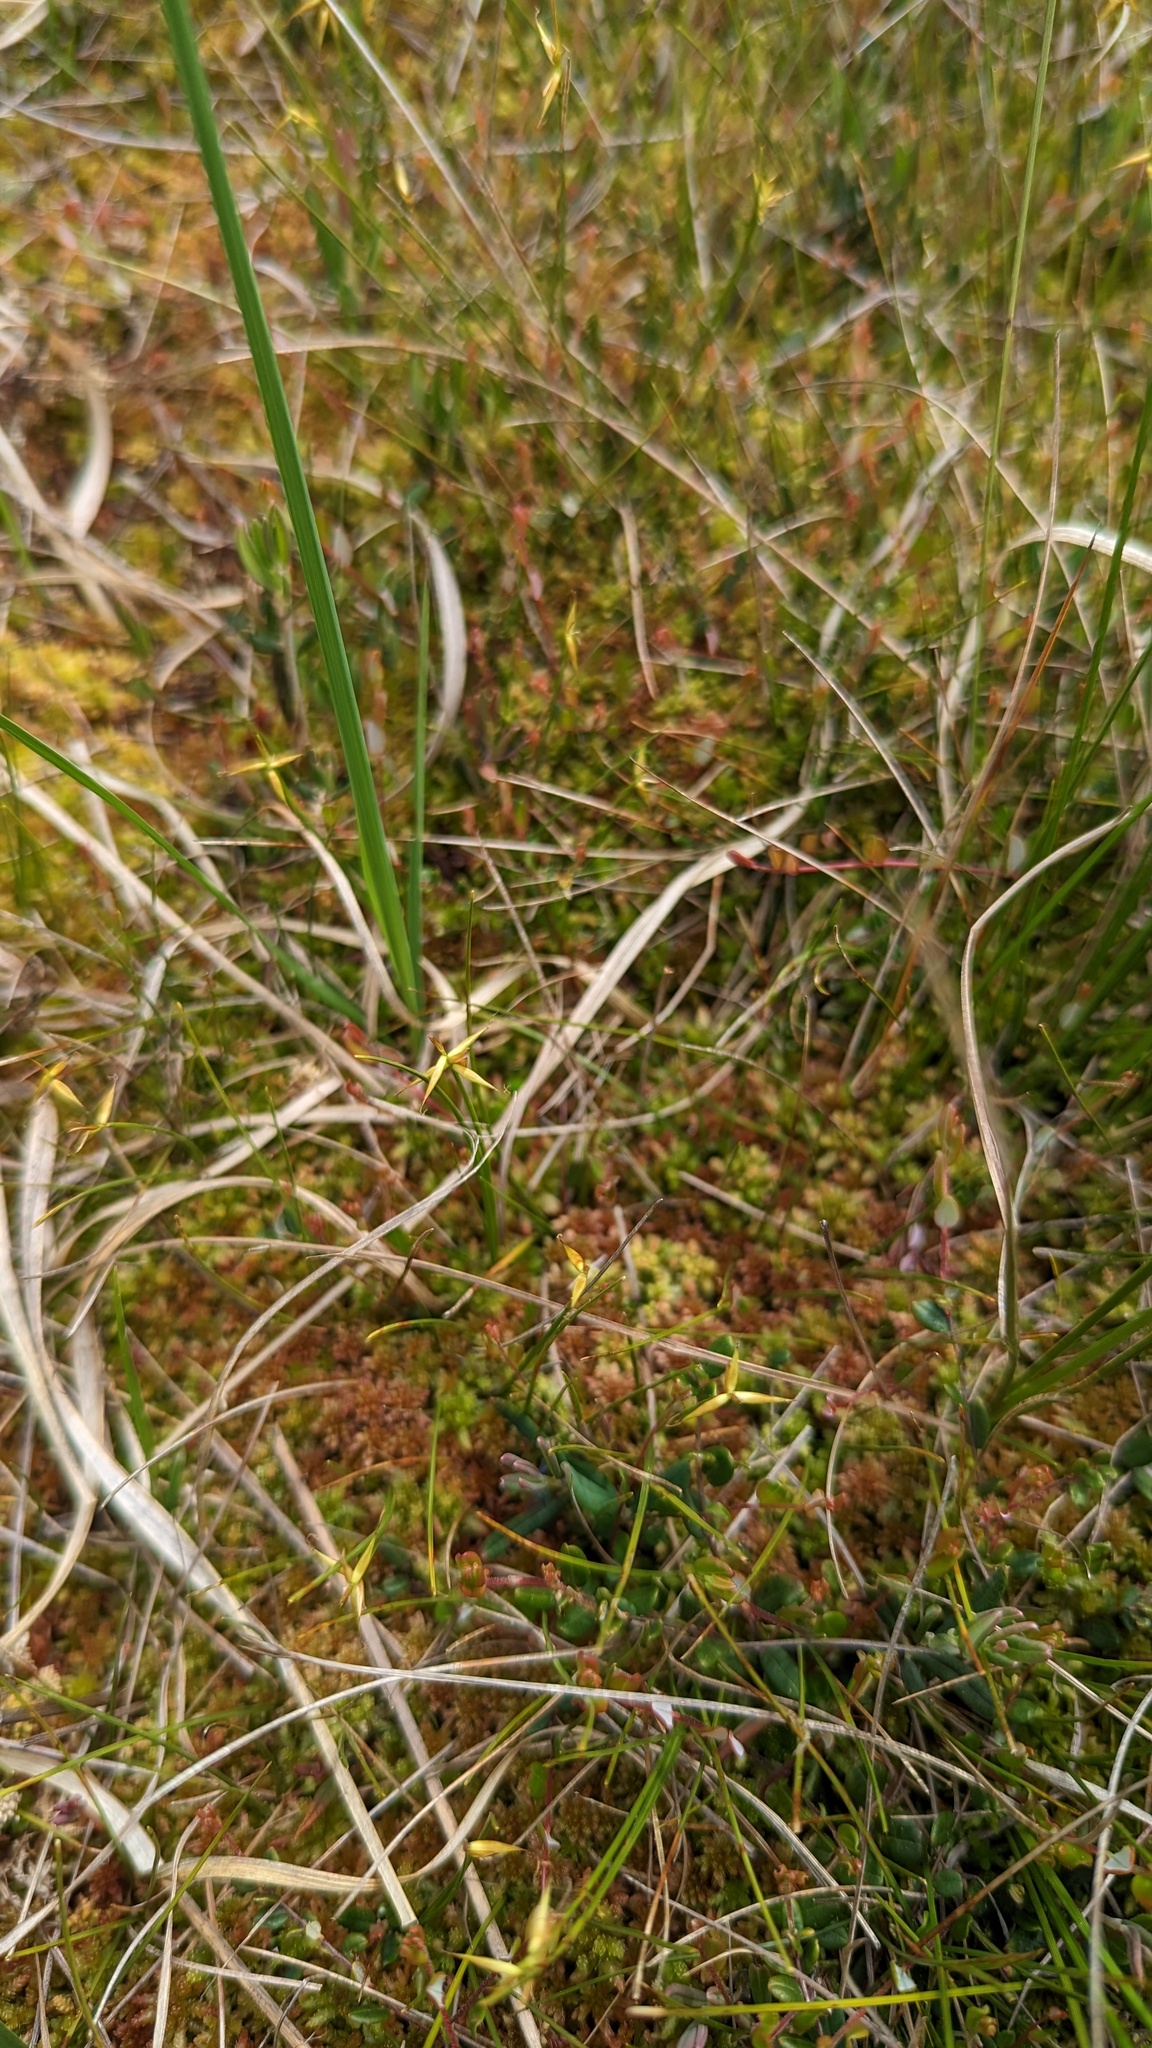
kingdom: Plantae
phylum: Tracheophyta
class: Liliopsida
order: Poales
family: Cyperaceae
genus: Carex
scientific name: Carex pauciflora
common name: Few-flowered sedge
